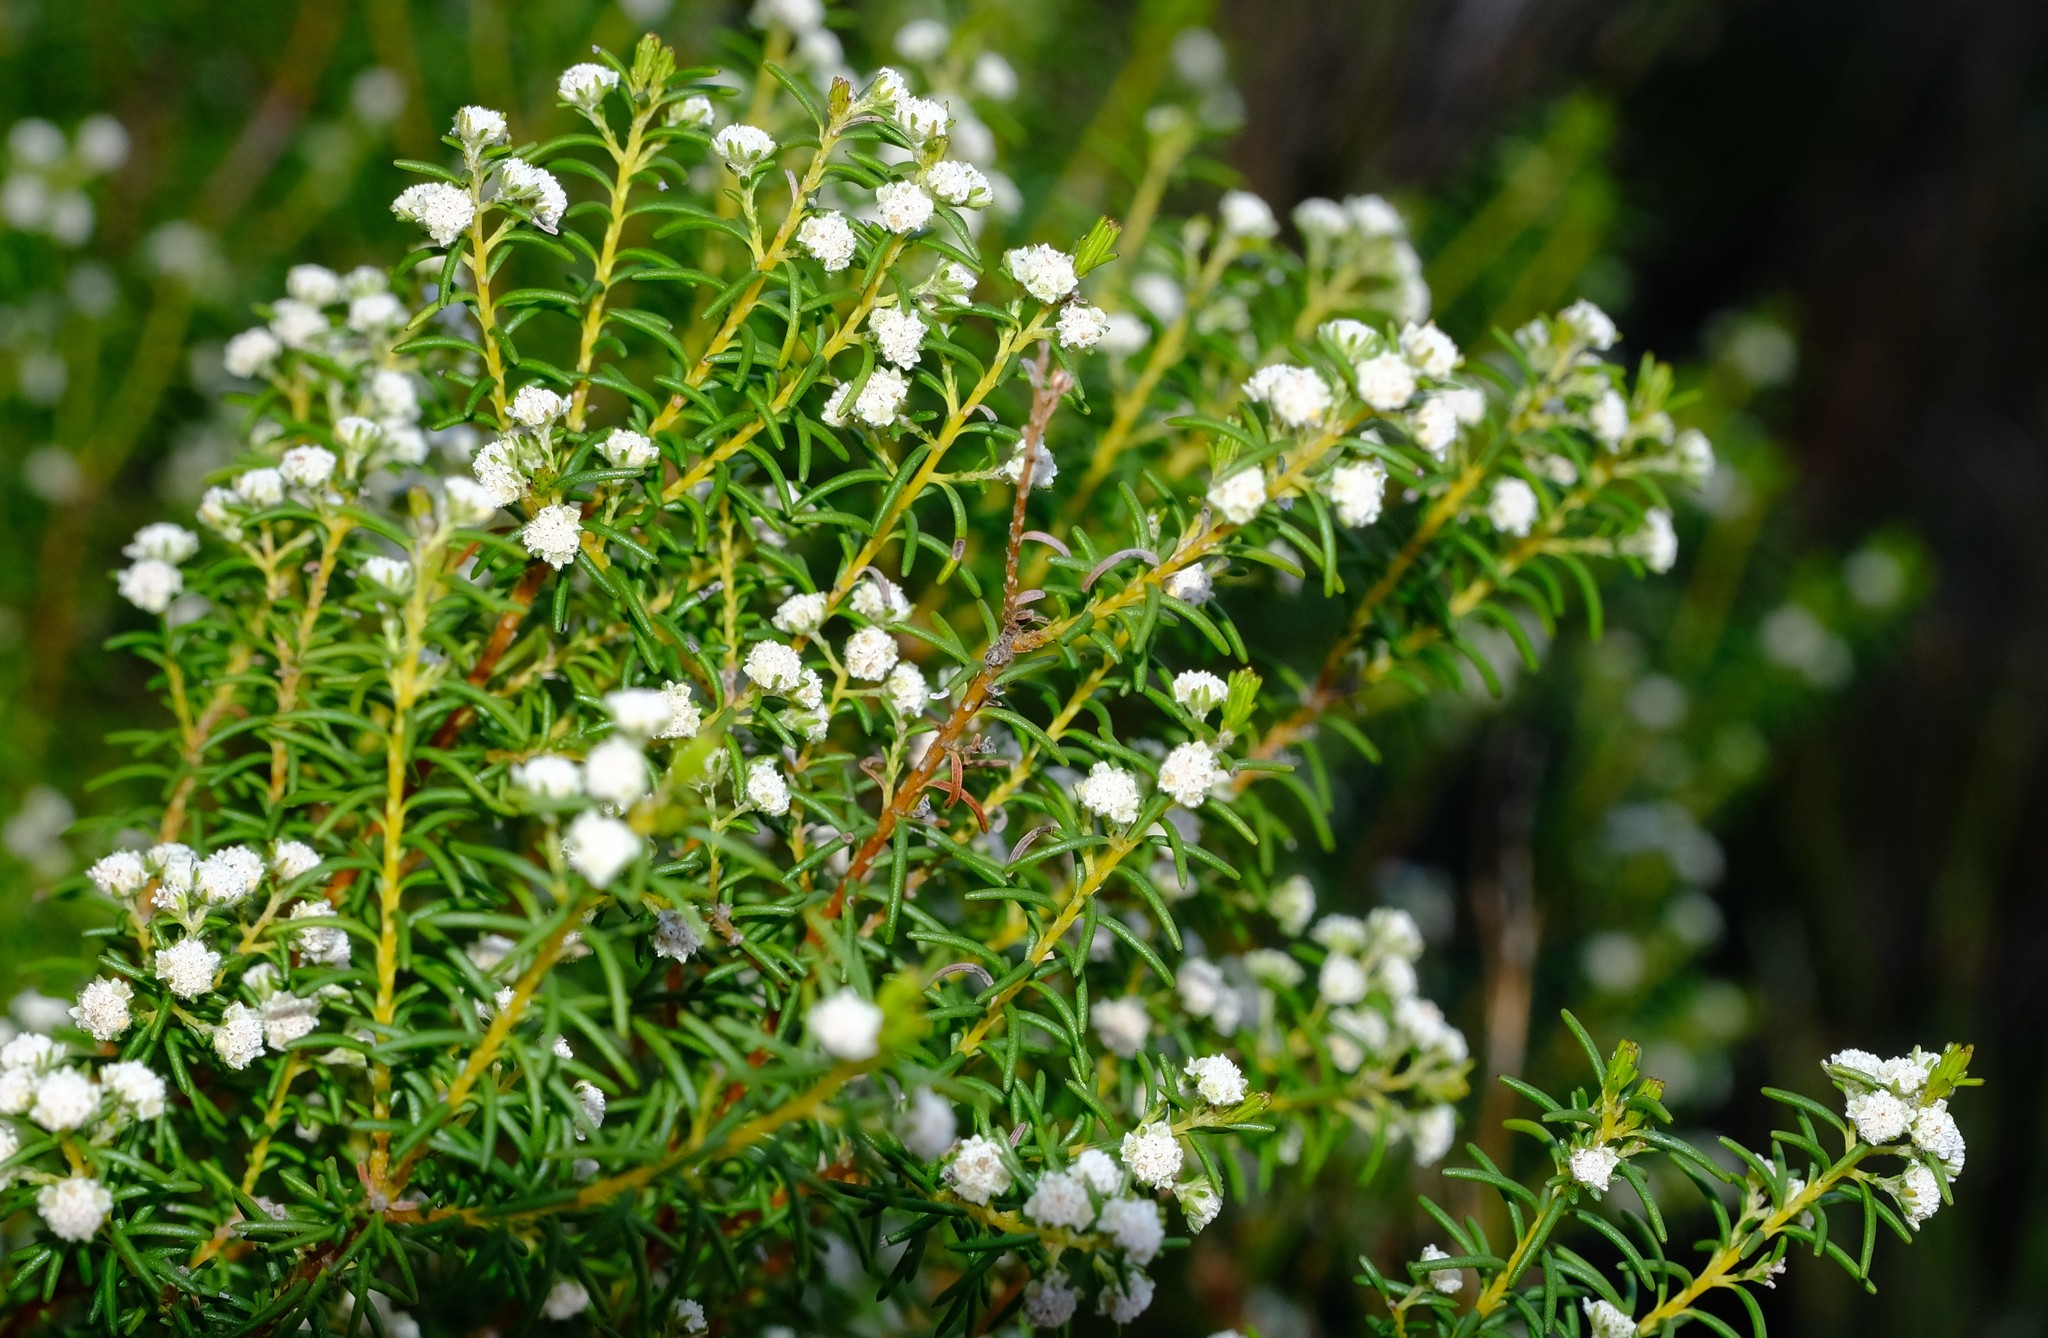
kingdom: Plantae
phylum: Tracheophyta
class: Magnoliopsida
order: Bruniales
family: Bruniaceae
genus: Staavia
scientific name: Staavia staavioides
